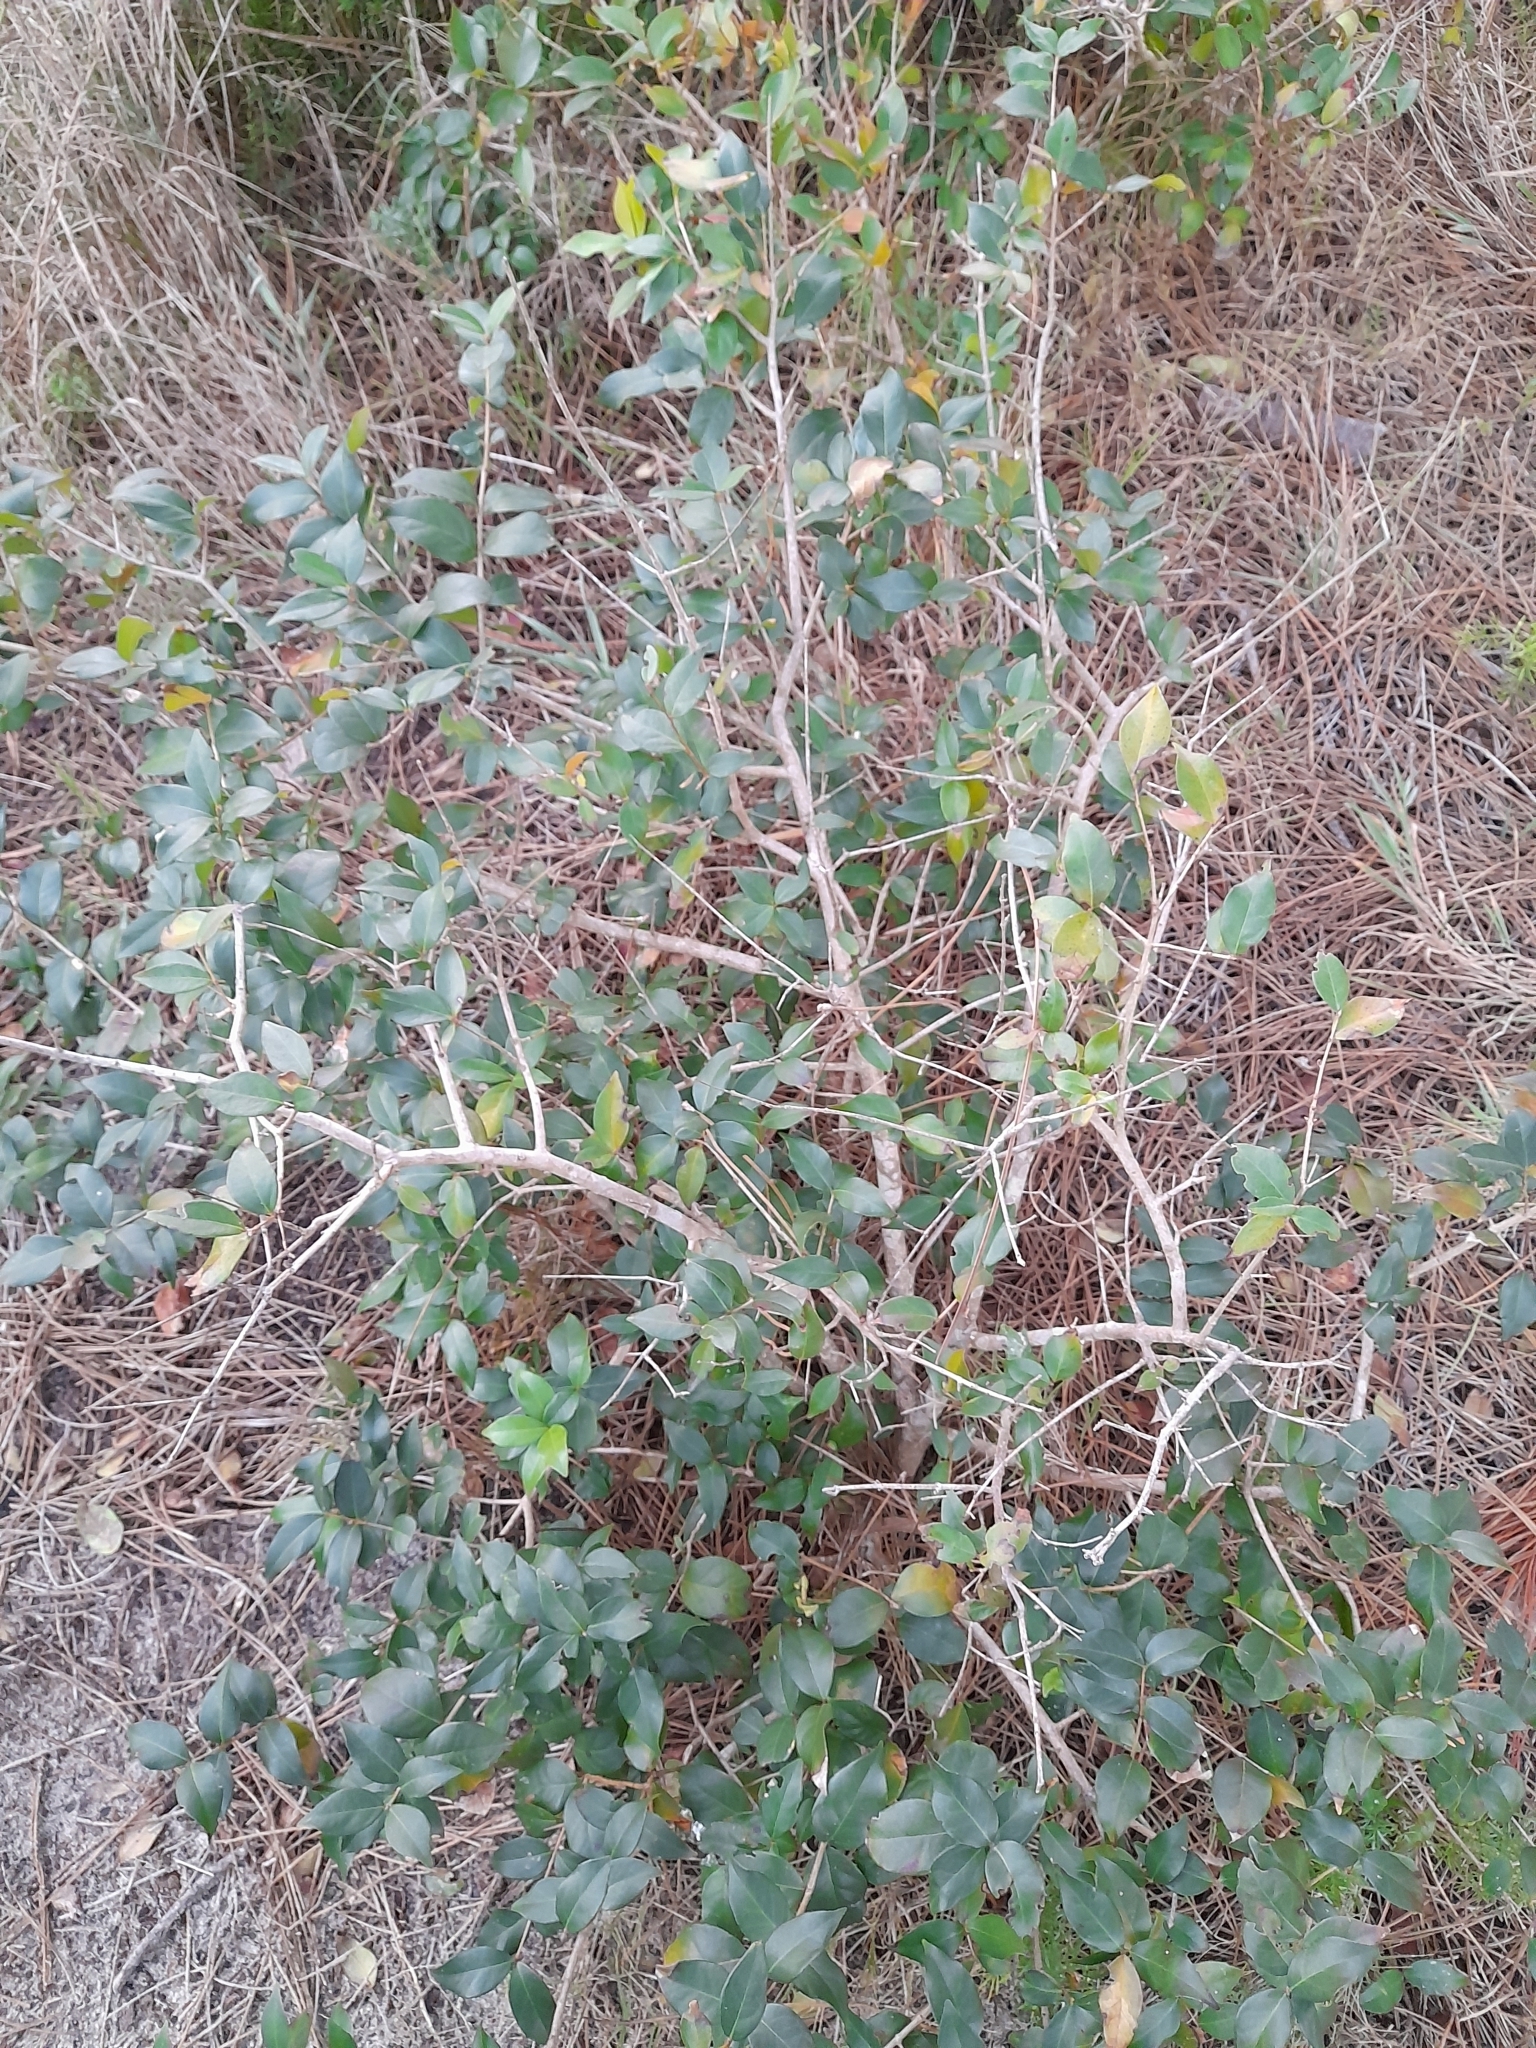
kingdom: Plantae
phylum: Tracheophyta
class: Magnoliopsida
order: Myrtales
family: Myrtaceae
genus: Eugenia
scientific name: Eugenia uniflora
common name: Surinam cherry
